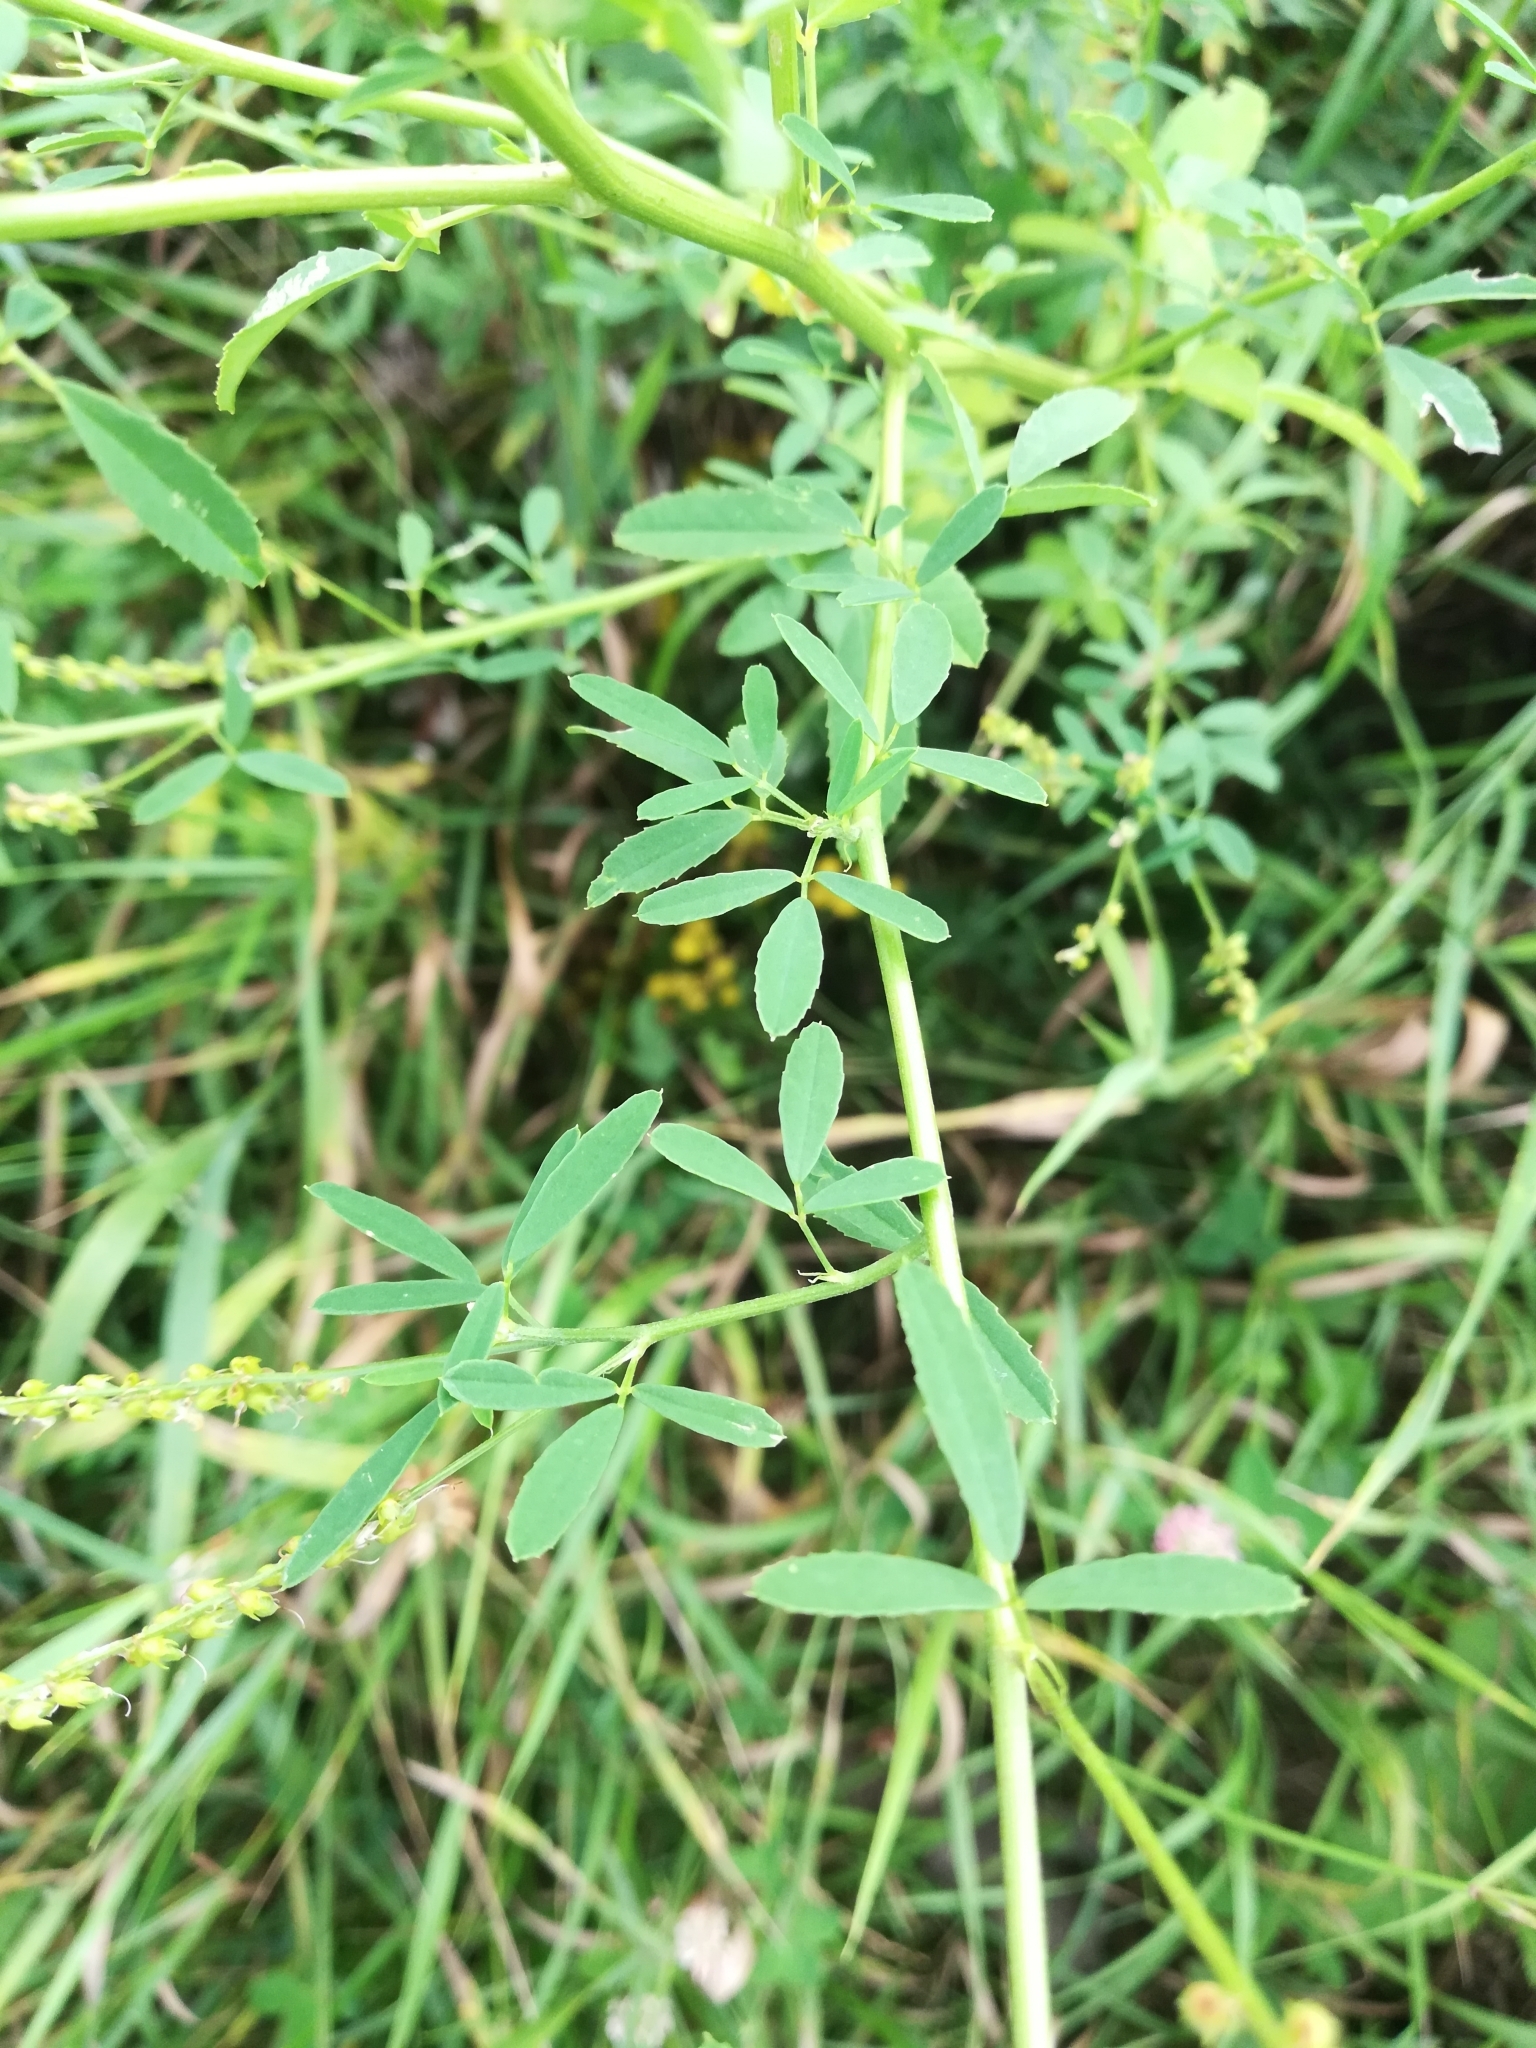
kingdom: Plantae
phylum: Tracheophyta
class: Magnoliopsida
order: Fabales
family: Fabaceae
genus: Melilotus
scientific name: Melilotus officinalis
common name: Sweetclover
